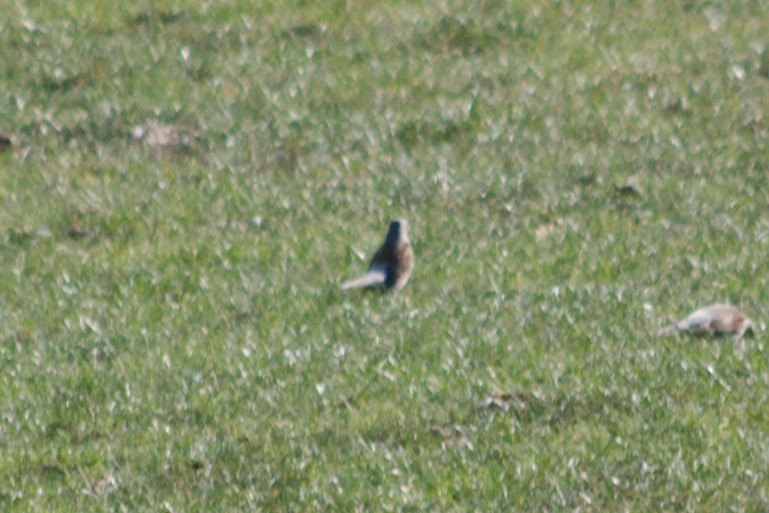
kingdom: Animalia
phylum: Chordata
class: Aves
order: Passeriformes
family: Turdidae
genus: Turdus
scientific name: Turdus pilaris
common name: Fieldfare
